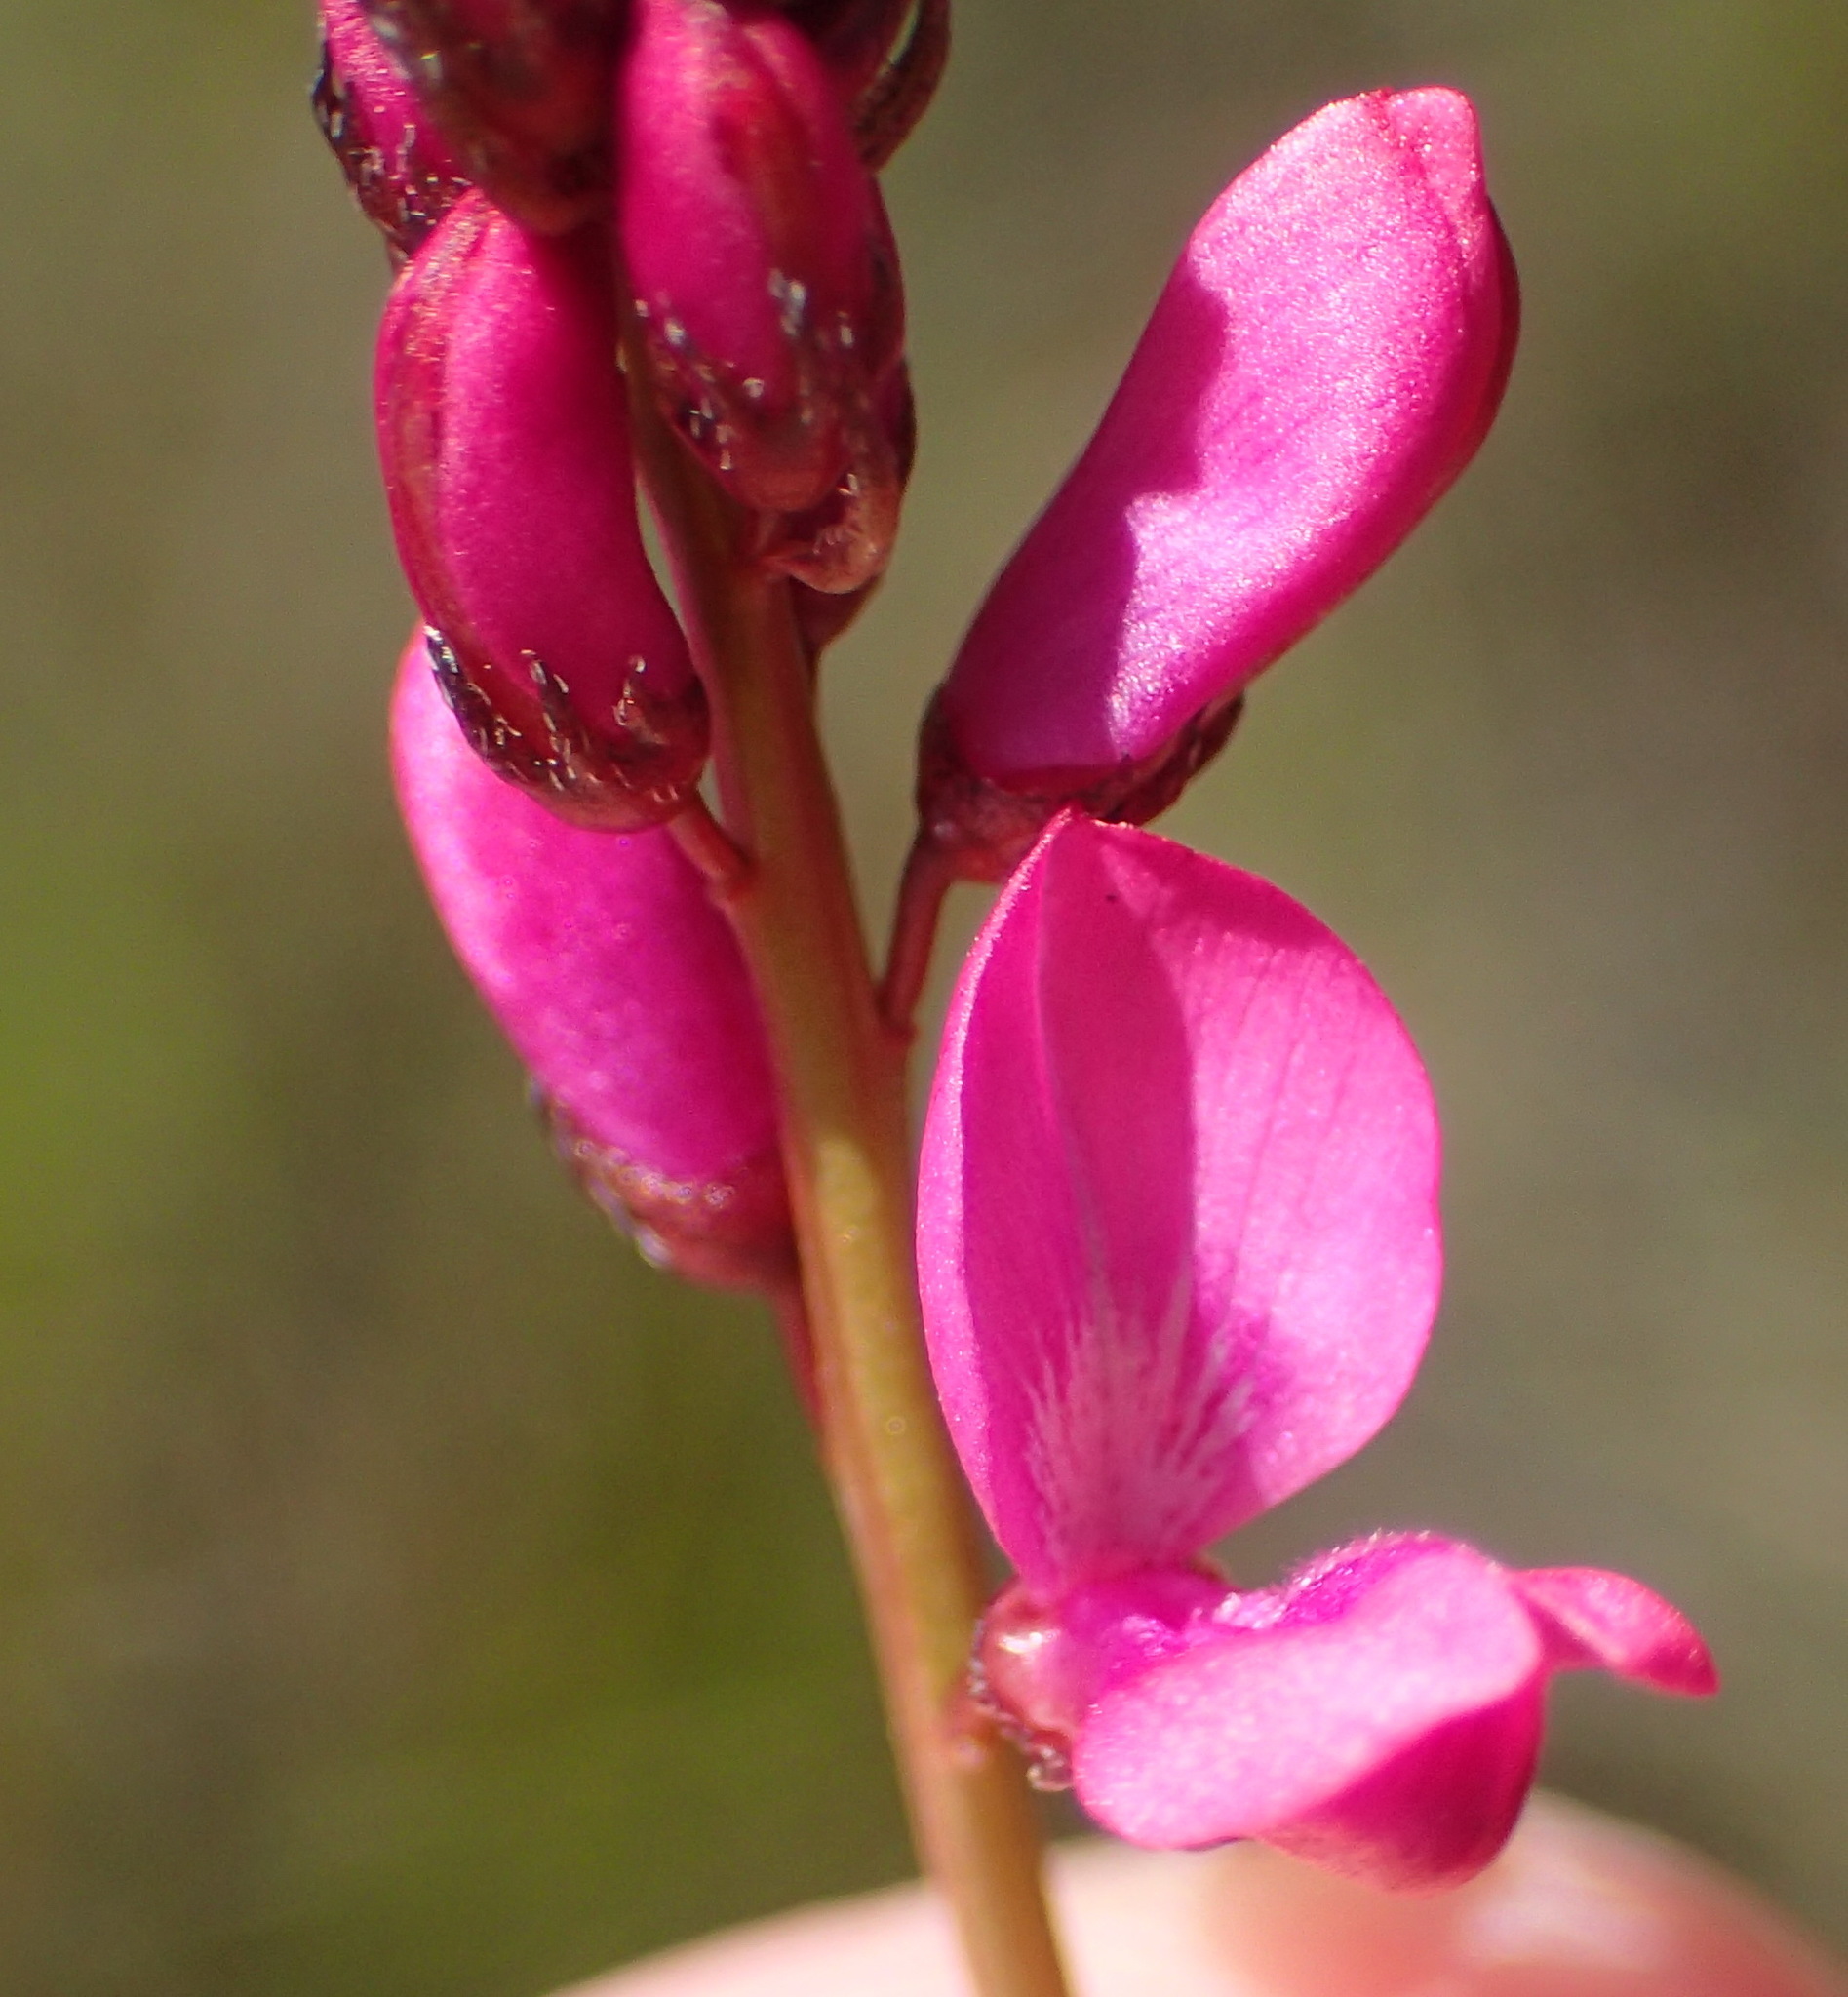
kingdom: Plantae
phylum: Tracheophyta
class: Magnoliopsida
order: Fabales
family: Fabaceae
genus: Indigofera
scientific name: Indigofera
